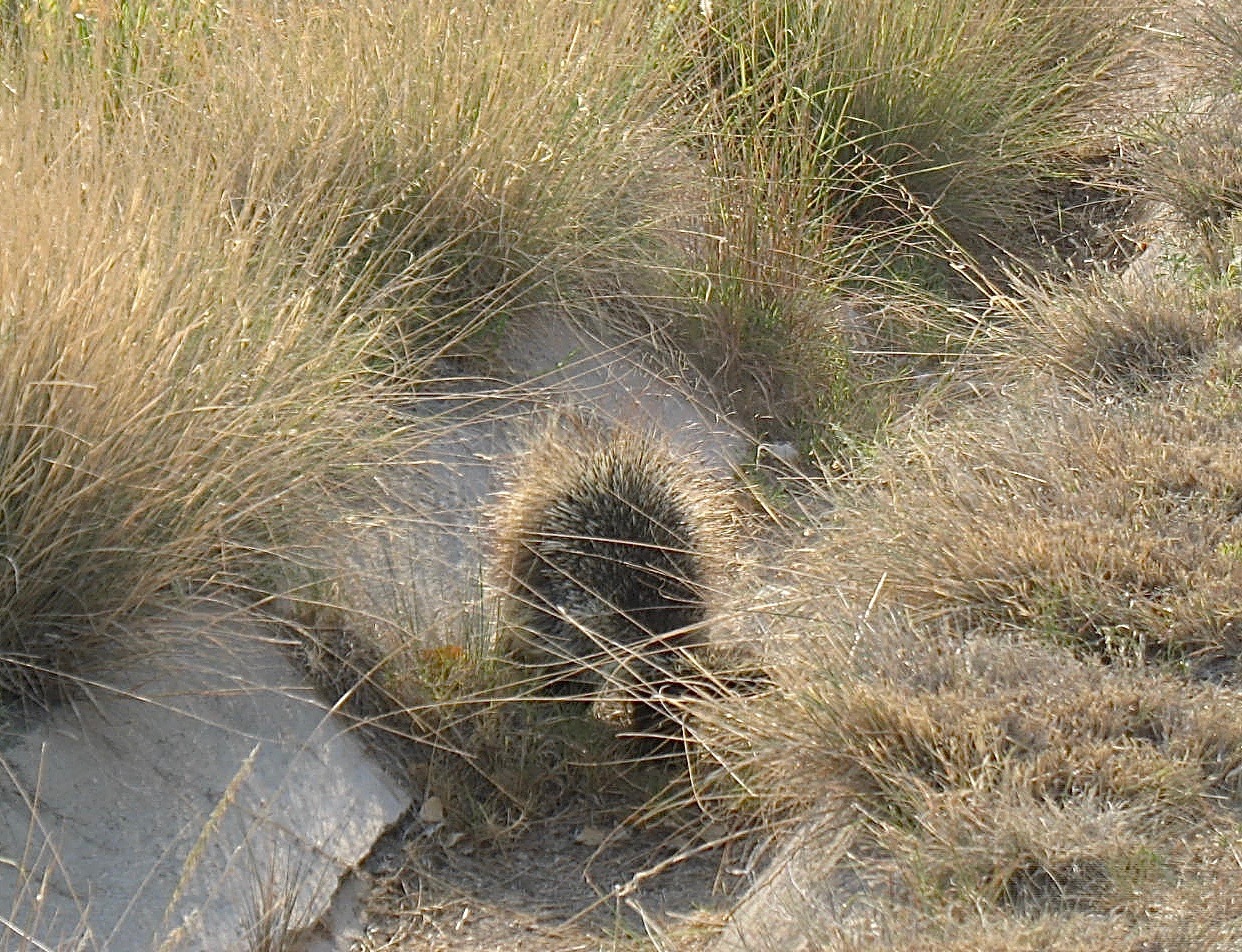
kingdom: Animalia
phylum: Chordata
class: Mammalia
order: Rodentia
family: Erethizontidae
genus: Erethizon
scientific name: Erethizon dorsatus
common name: North american porcupine
